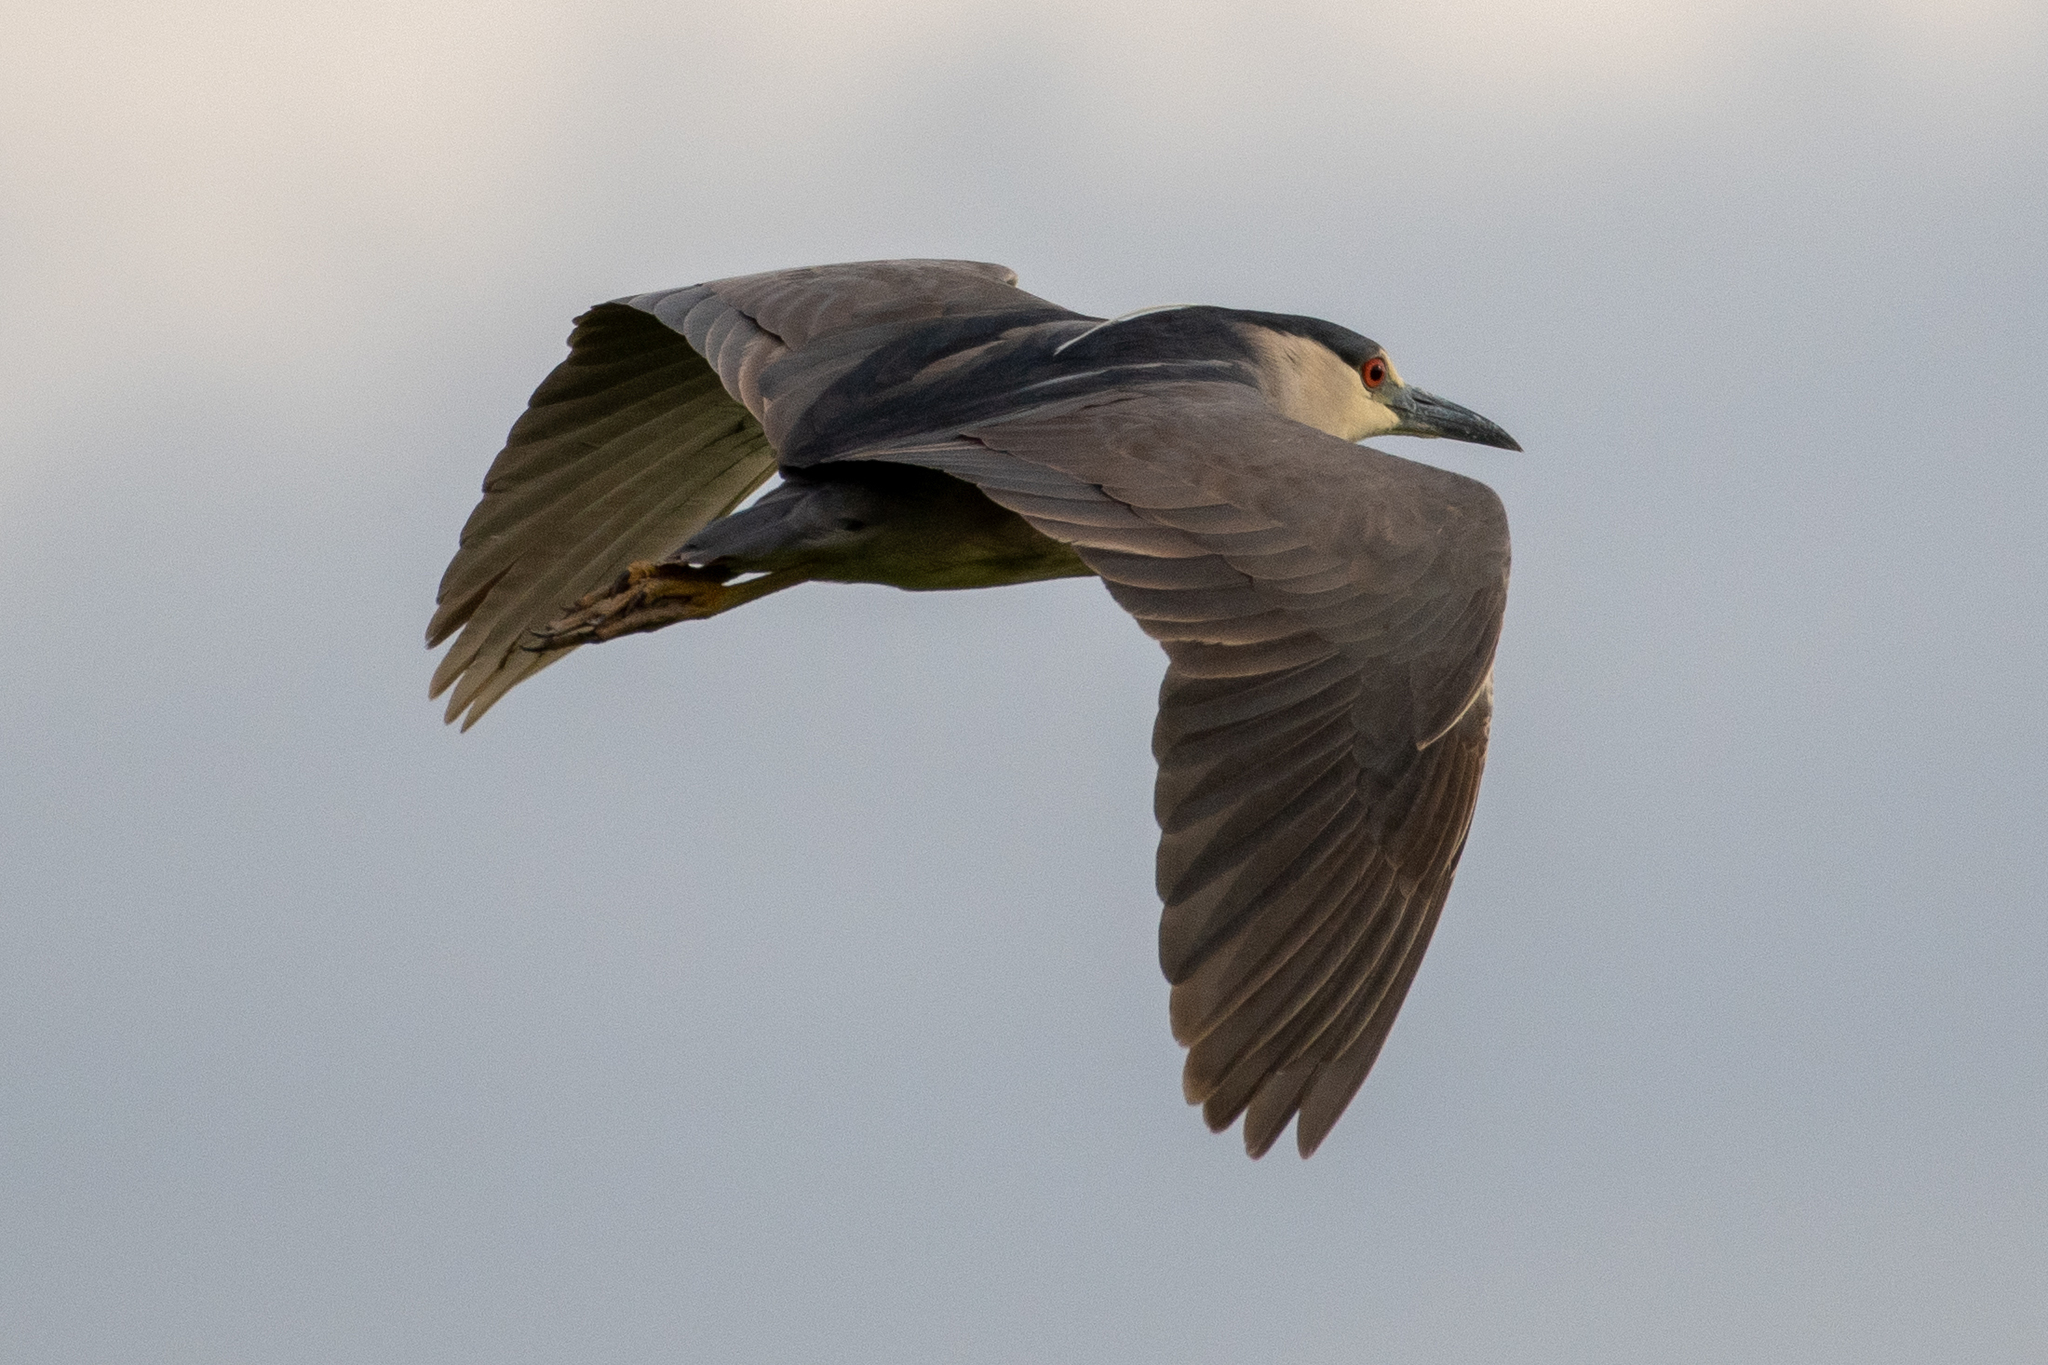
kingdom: Animalia
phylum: Chordata
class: Aves
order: Pelecaniformes
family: Ardeidae
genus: Nycticorax
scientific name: Nycticorax nycticorax
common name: Black-crowned night heron
